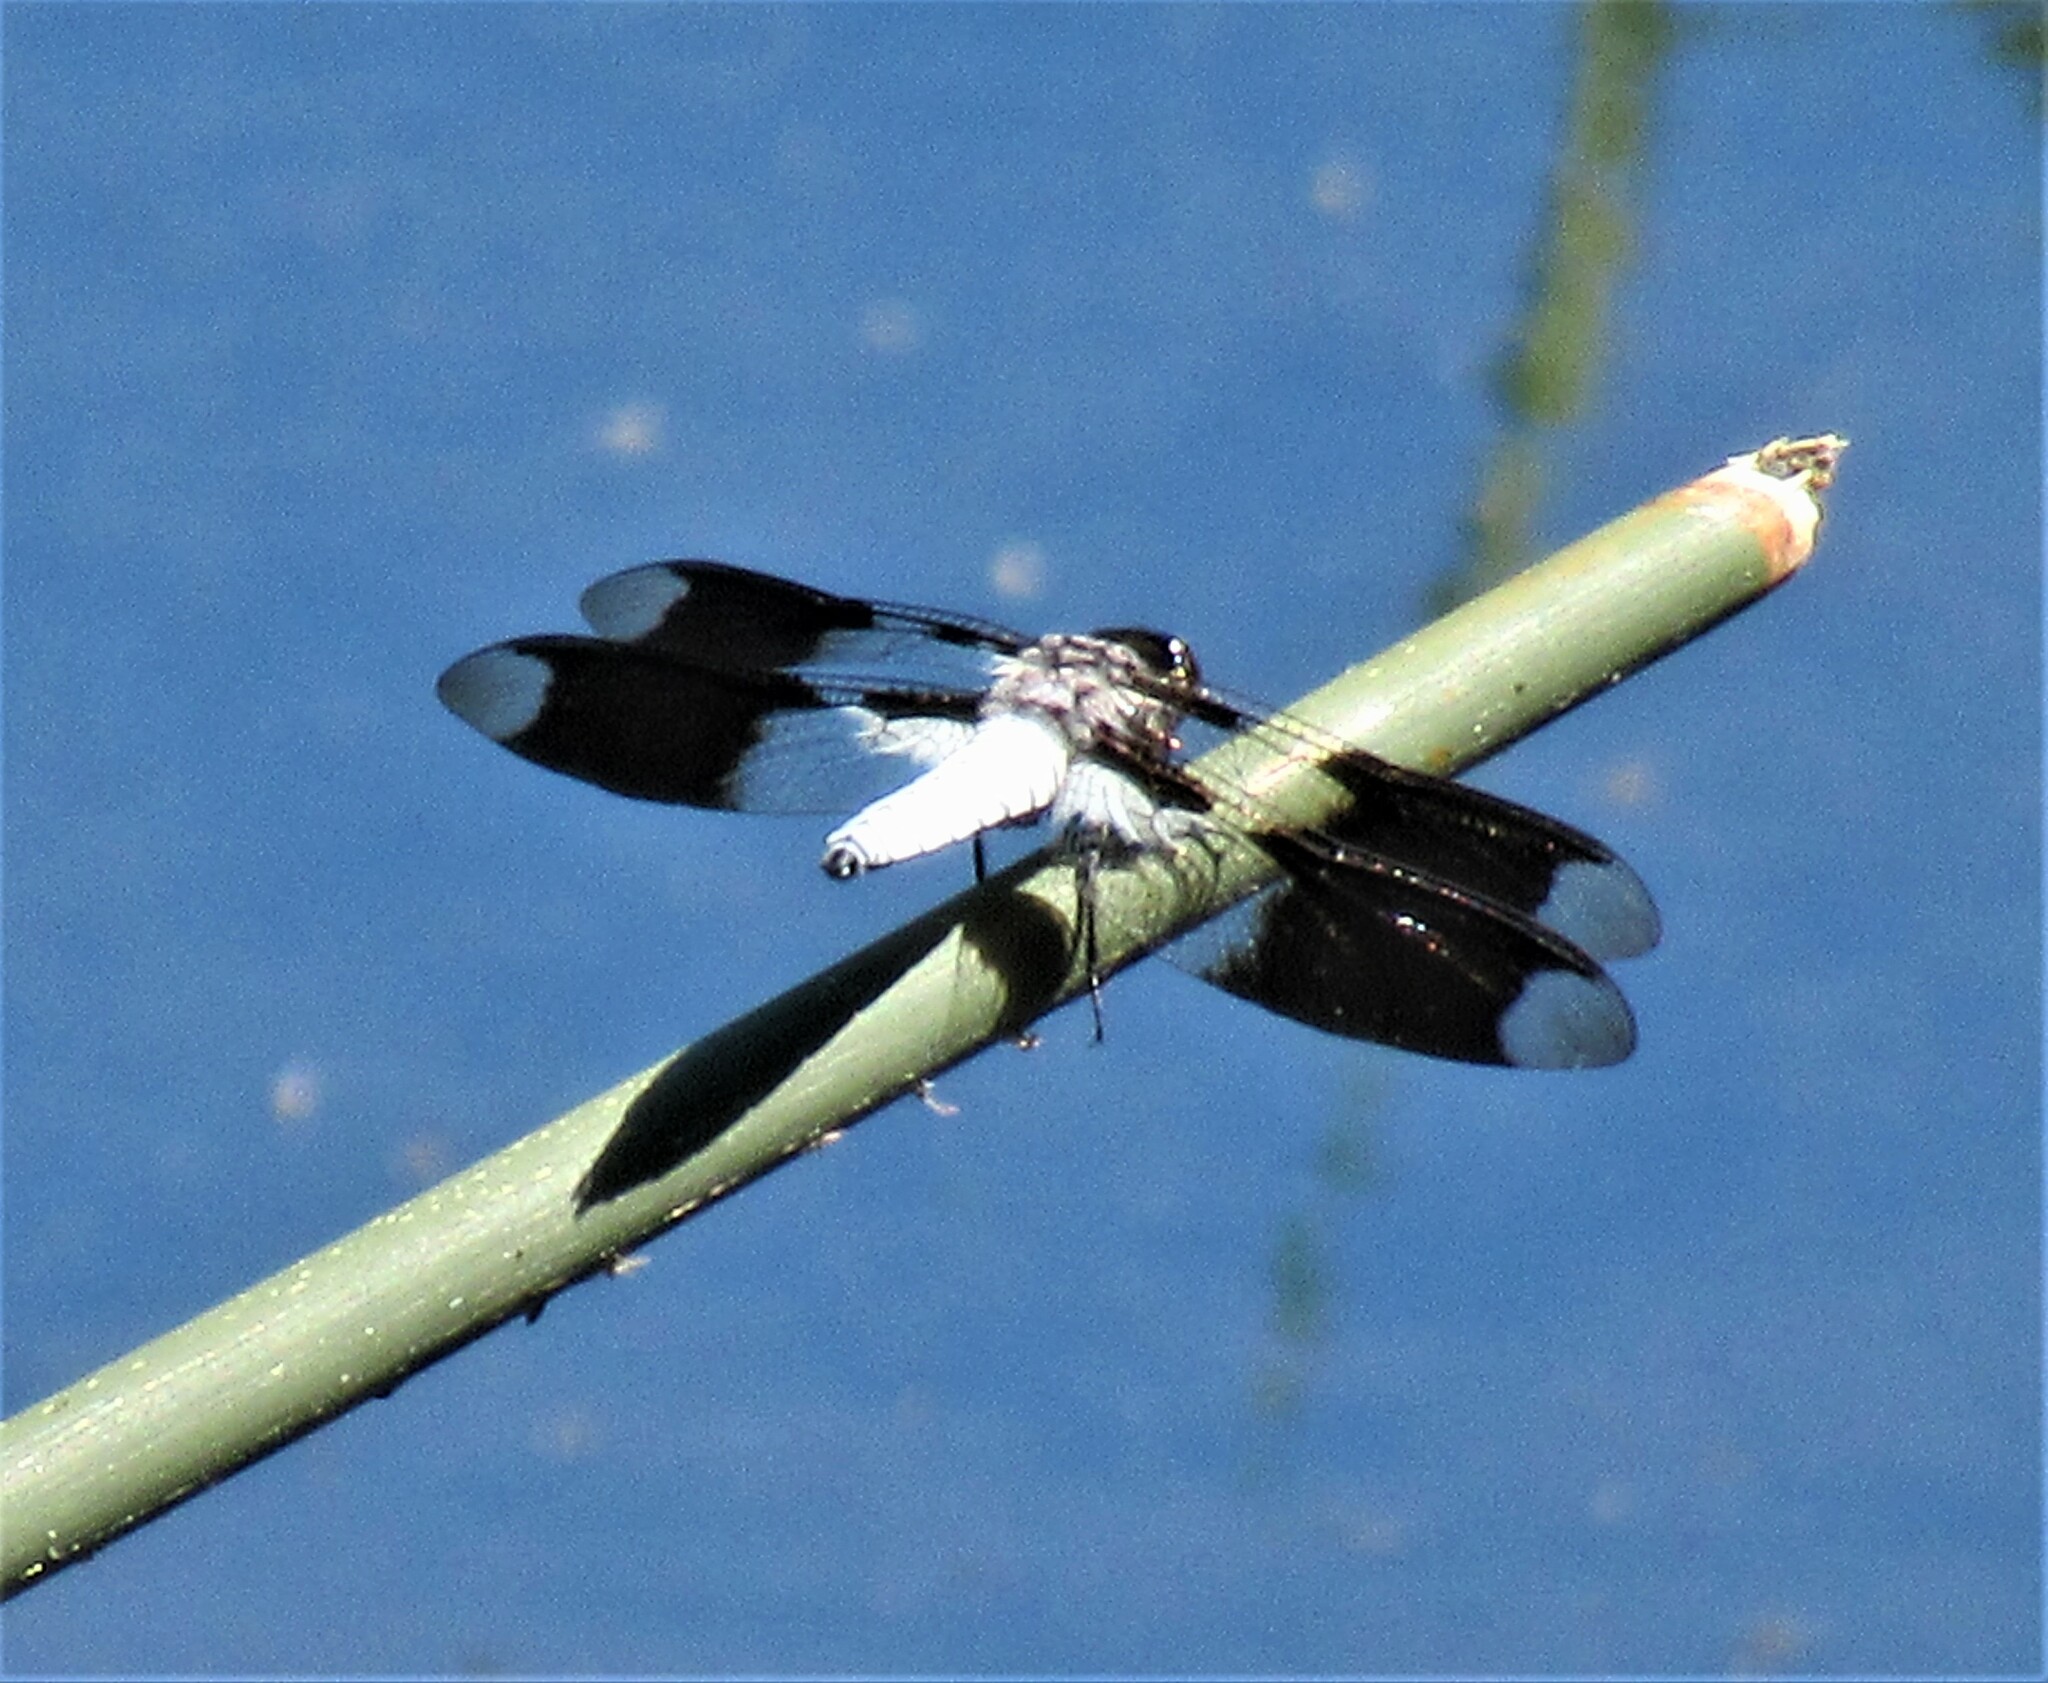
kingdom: Animalia
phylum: Arthropoda
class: Insecta
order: Odonata
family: Libellulidae
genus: Plathemis
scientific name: Plathemis lydia
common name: Common whitetail
